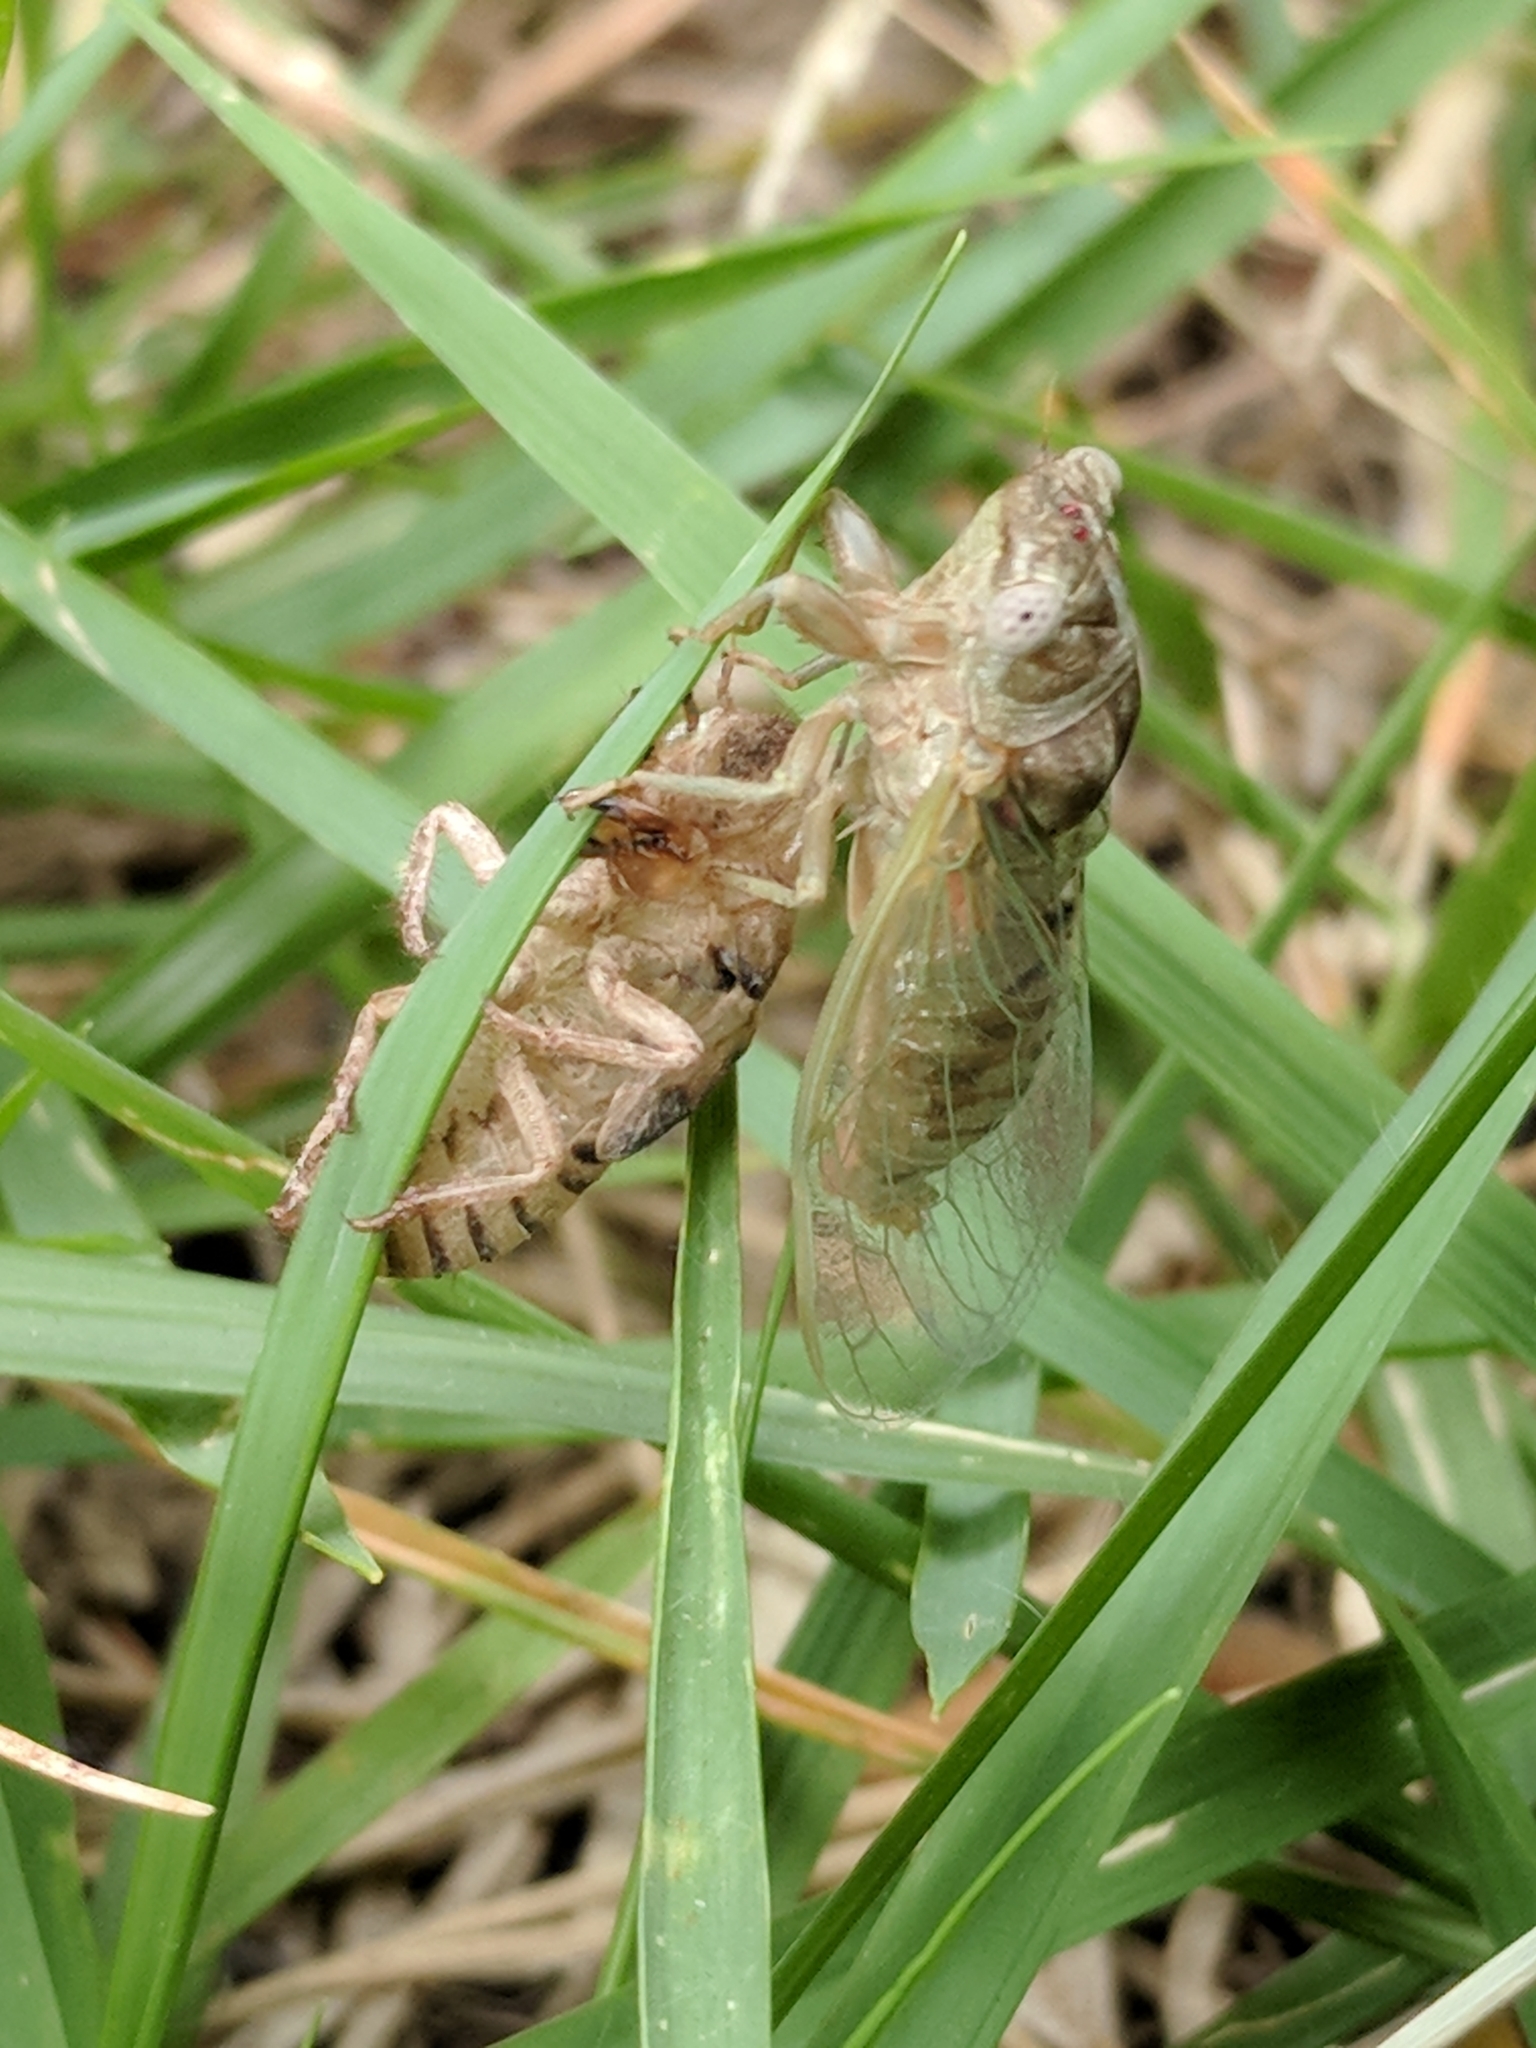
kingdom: Animalia
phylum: Arthropoda
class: Insecta
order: Hemiptera
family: Cicadidae
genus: Pacarina
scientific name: Pacarina puella
